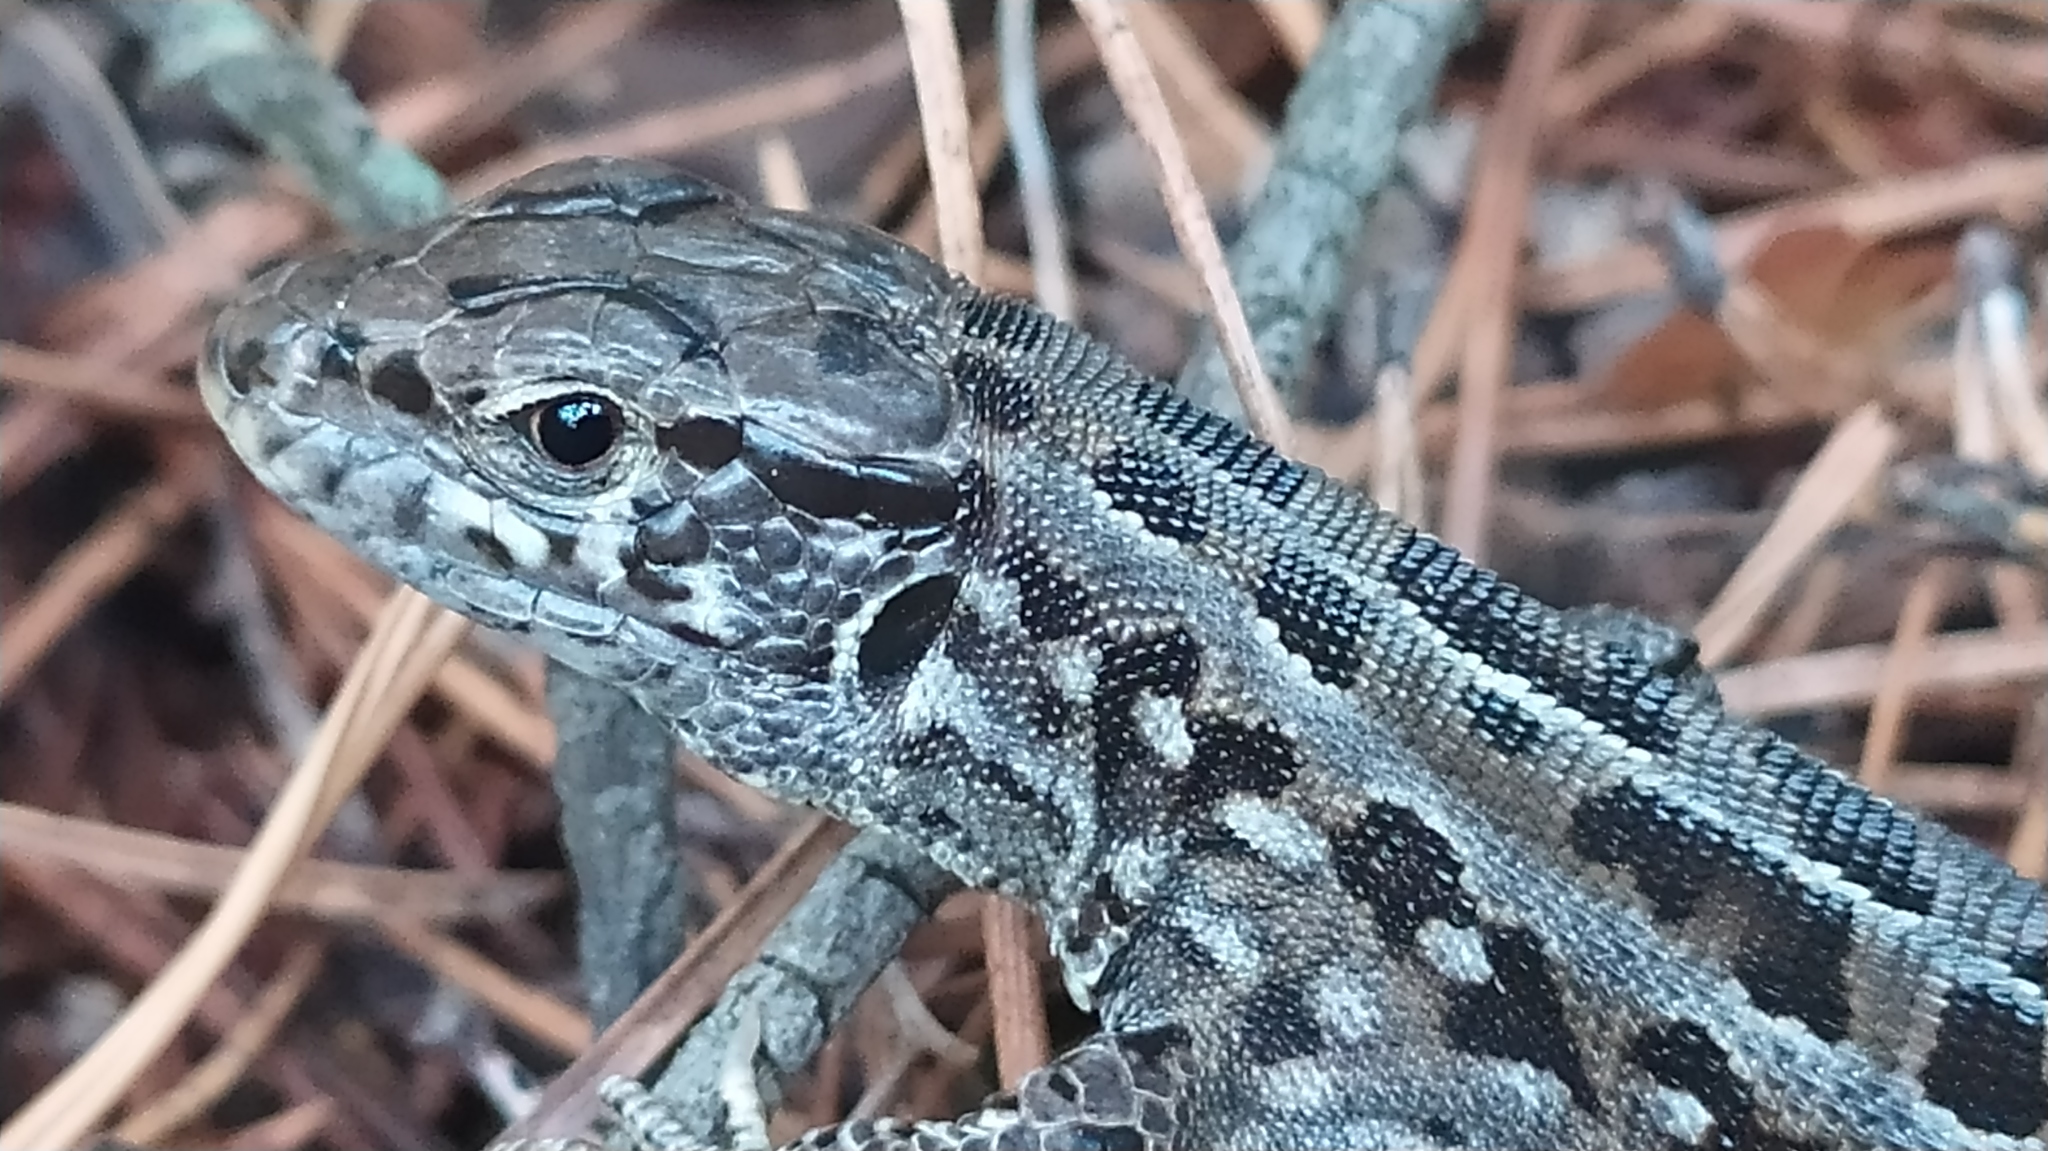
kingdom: Animalia
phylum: Chordata
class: Squamata
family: Lacertidae
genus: Lacerta
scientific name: Lacerta agilis
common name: Sand lizard
